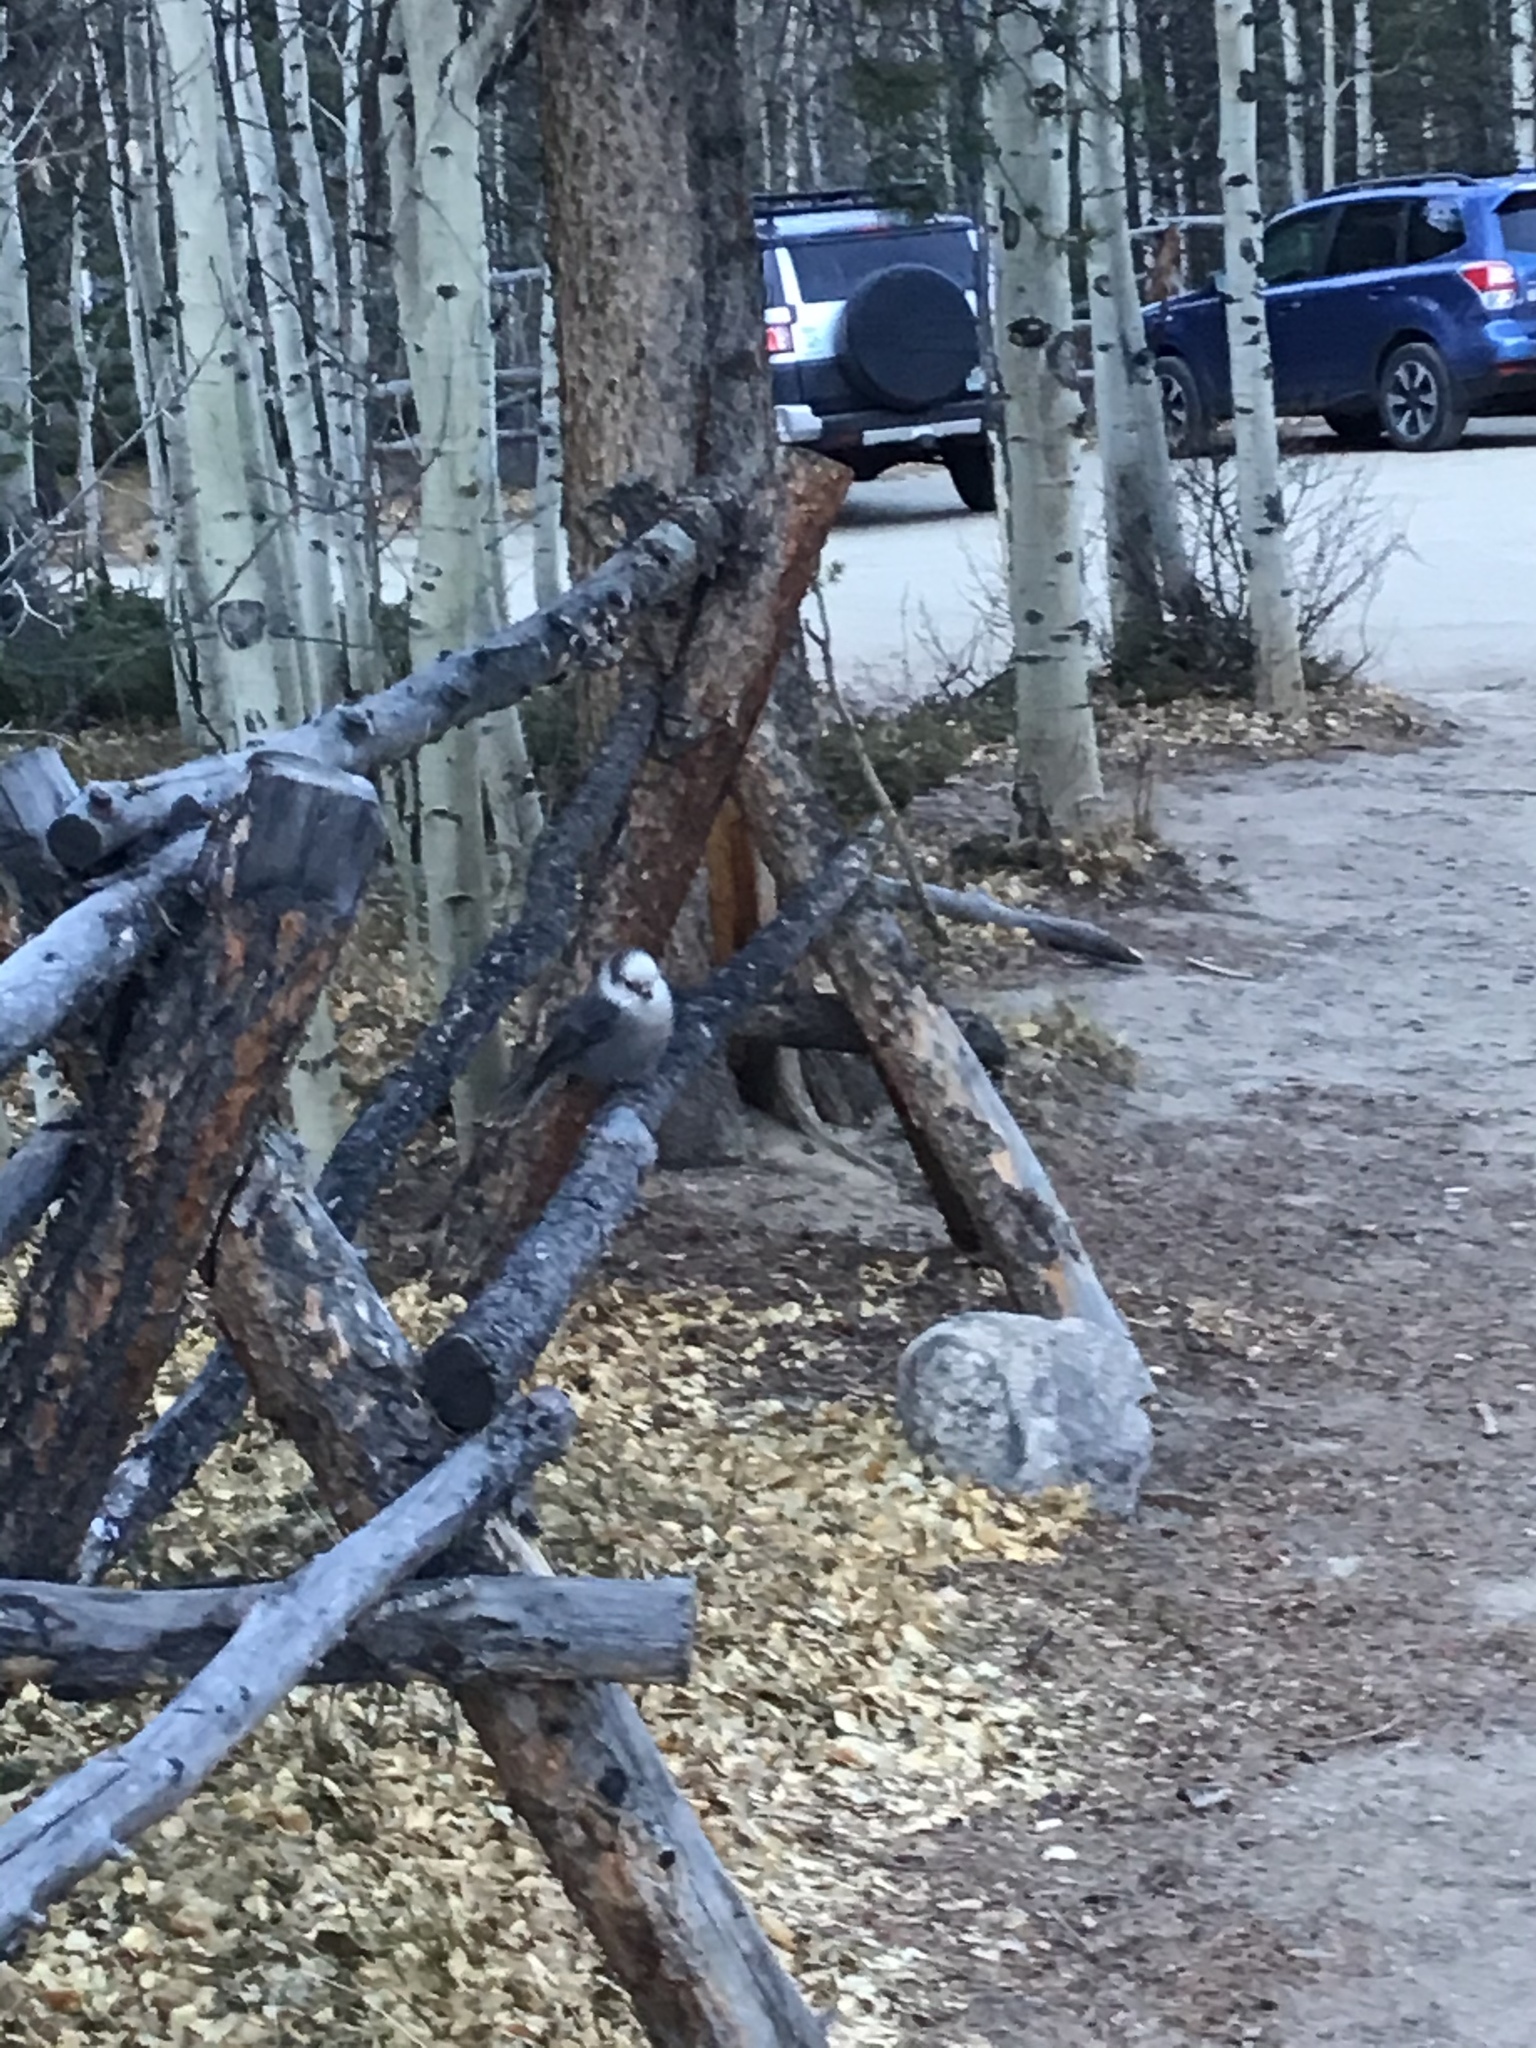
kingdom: Animalia
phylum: Chordata
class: Aves
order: Passeriformes
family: Corvidae
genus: Perisoreus
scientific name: Perisoreus canadensis
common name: Gray jay
